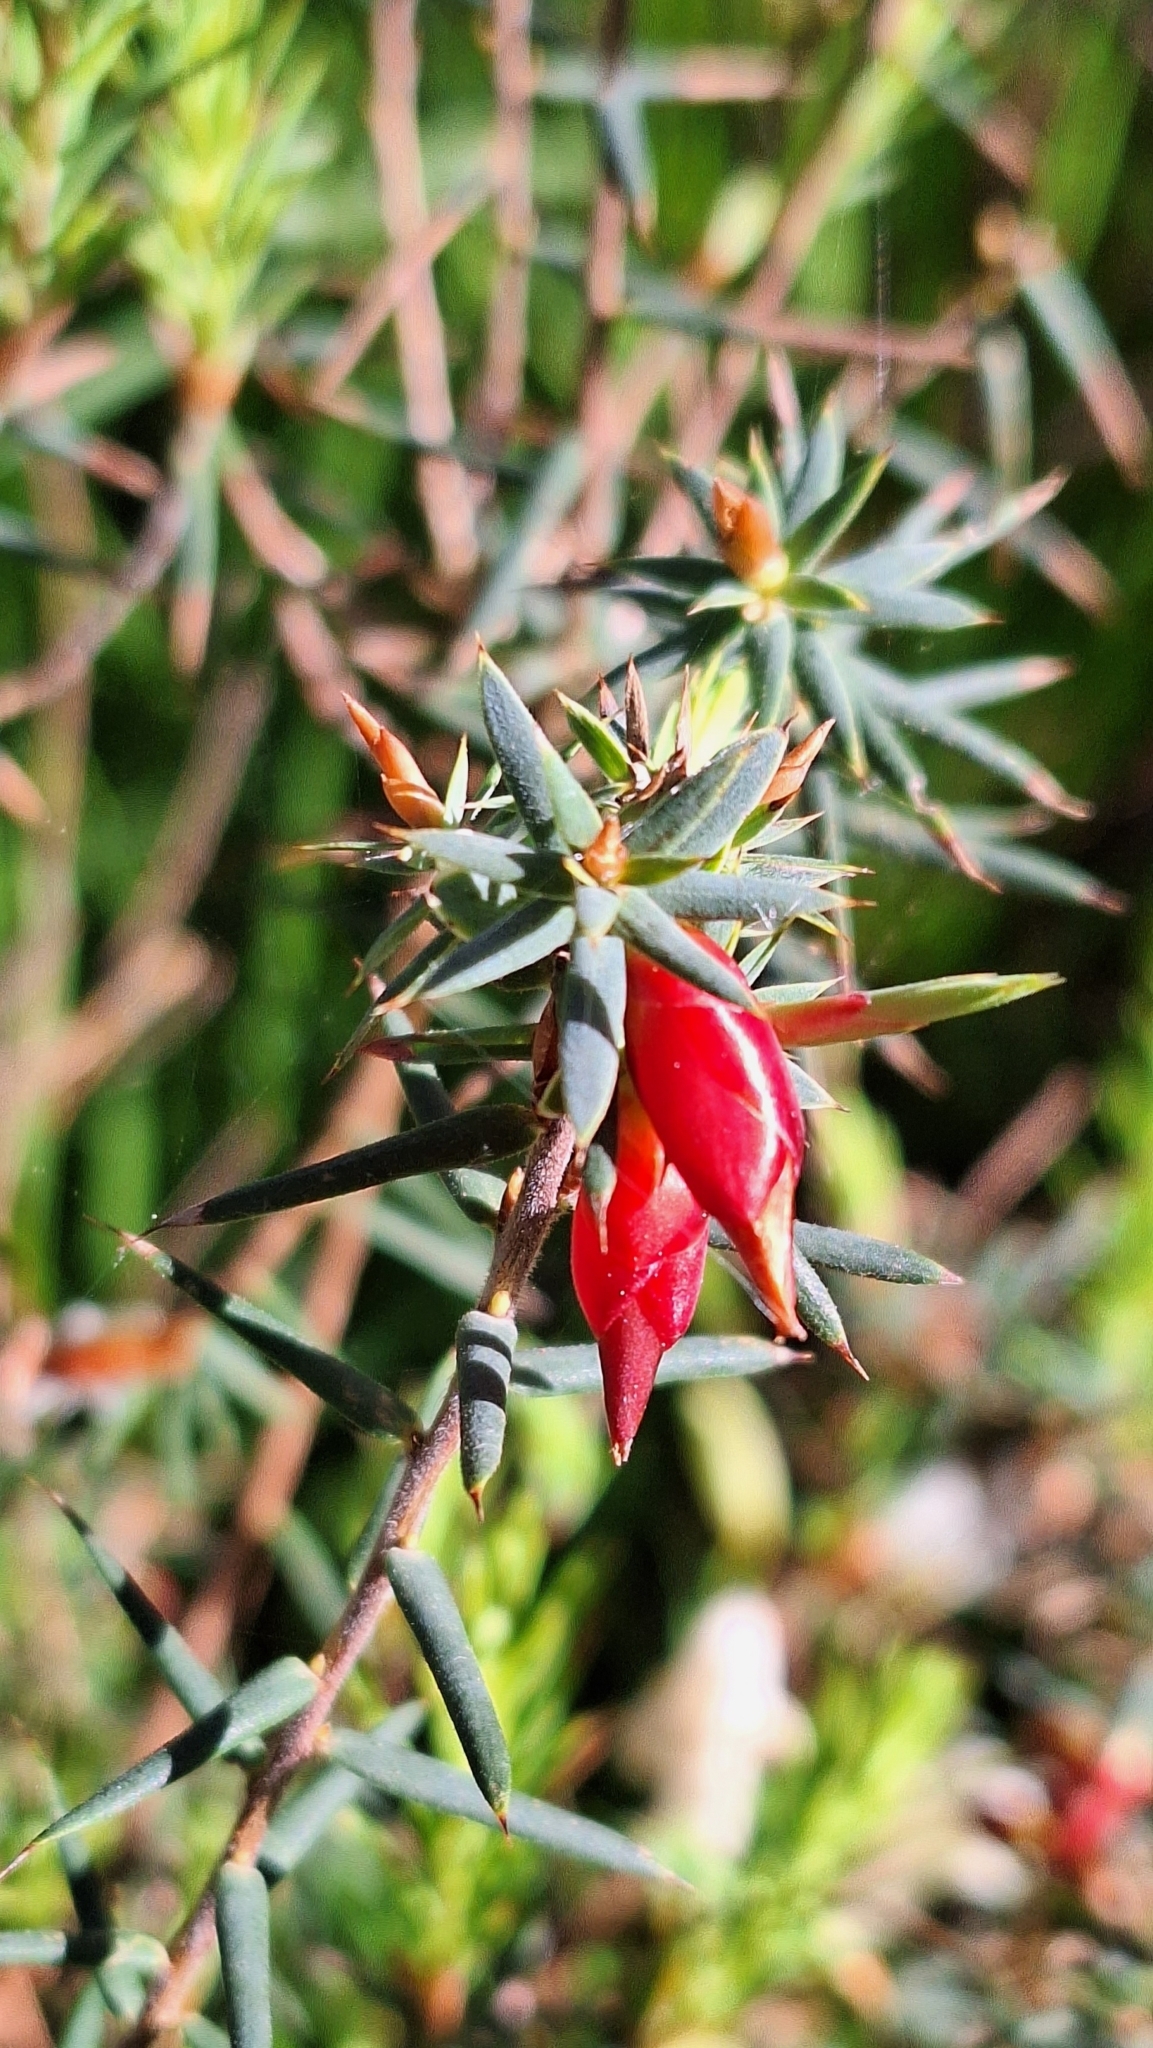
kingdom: Plantae
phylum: Tracheophyta
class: Magnoliopsida
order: Ericales
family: Ericaceae
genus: Stenanthera
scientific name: Stenanthera conostephioides
